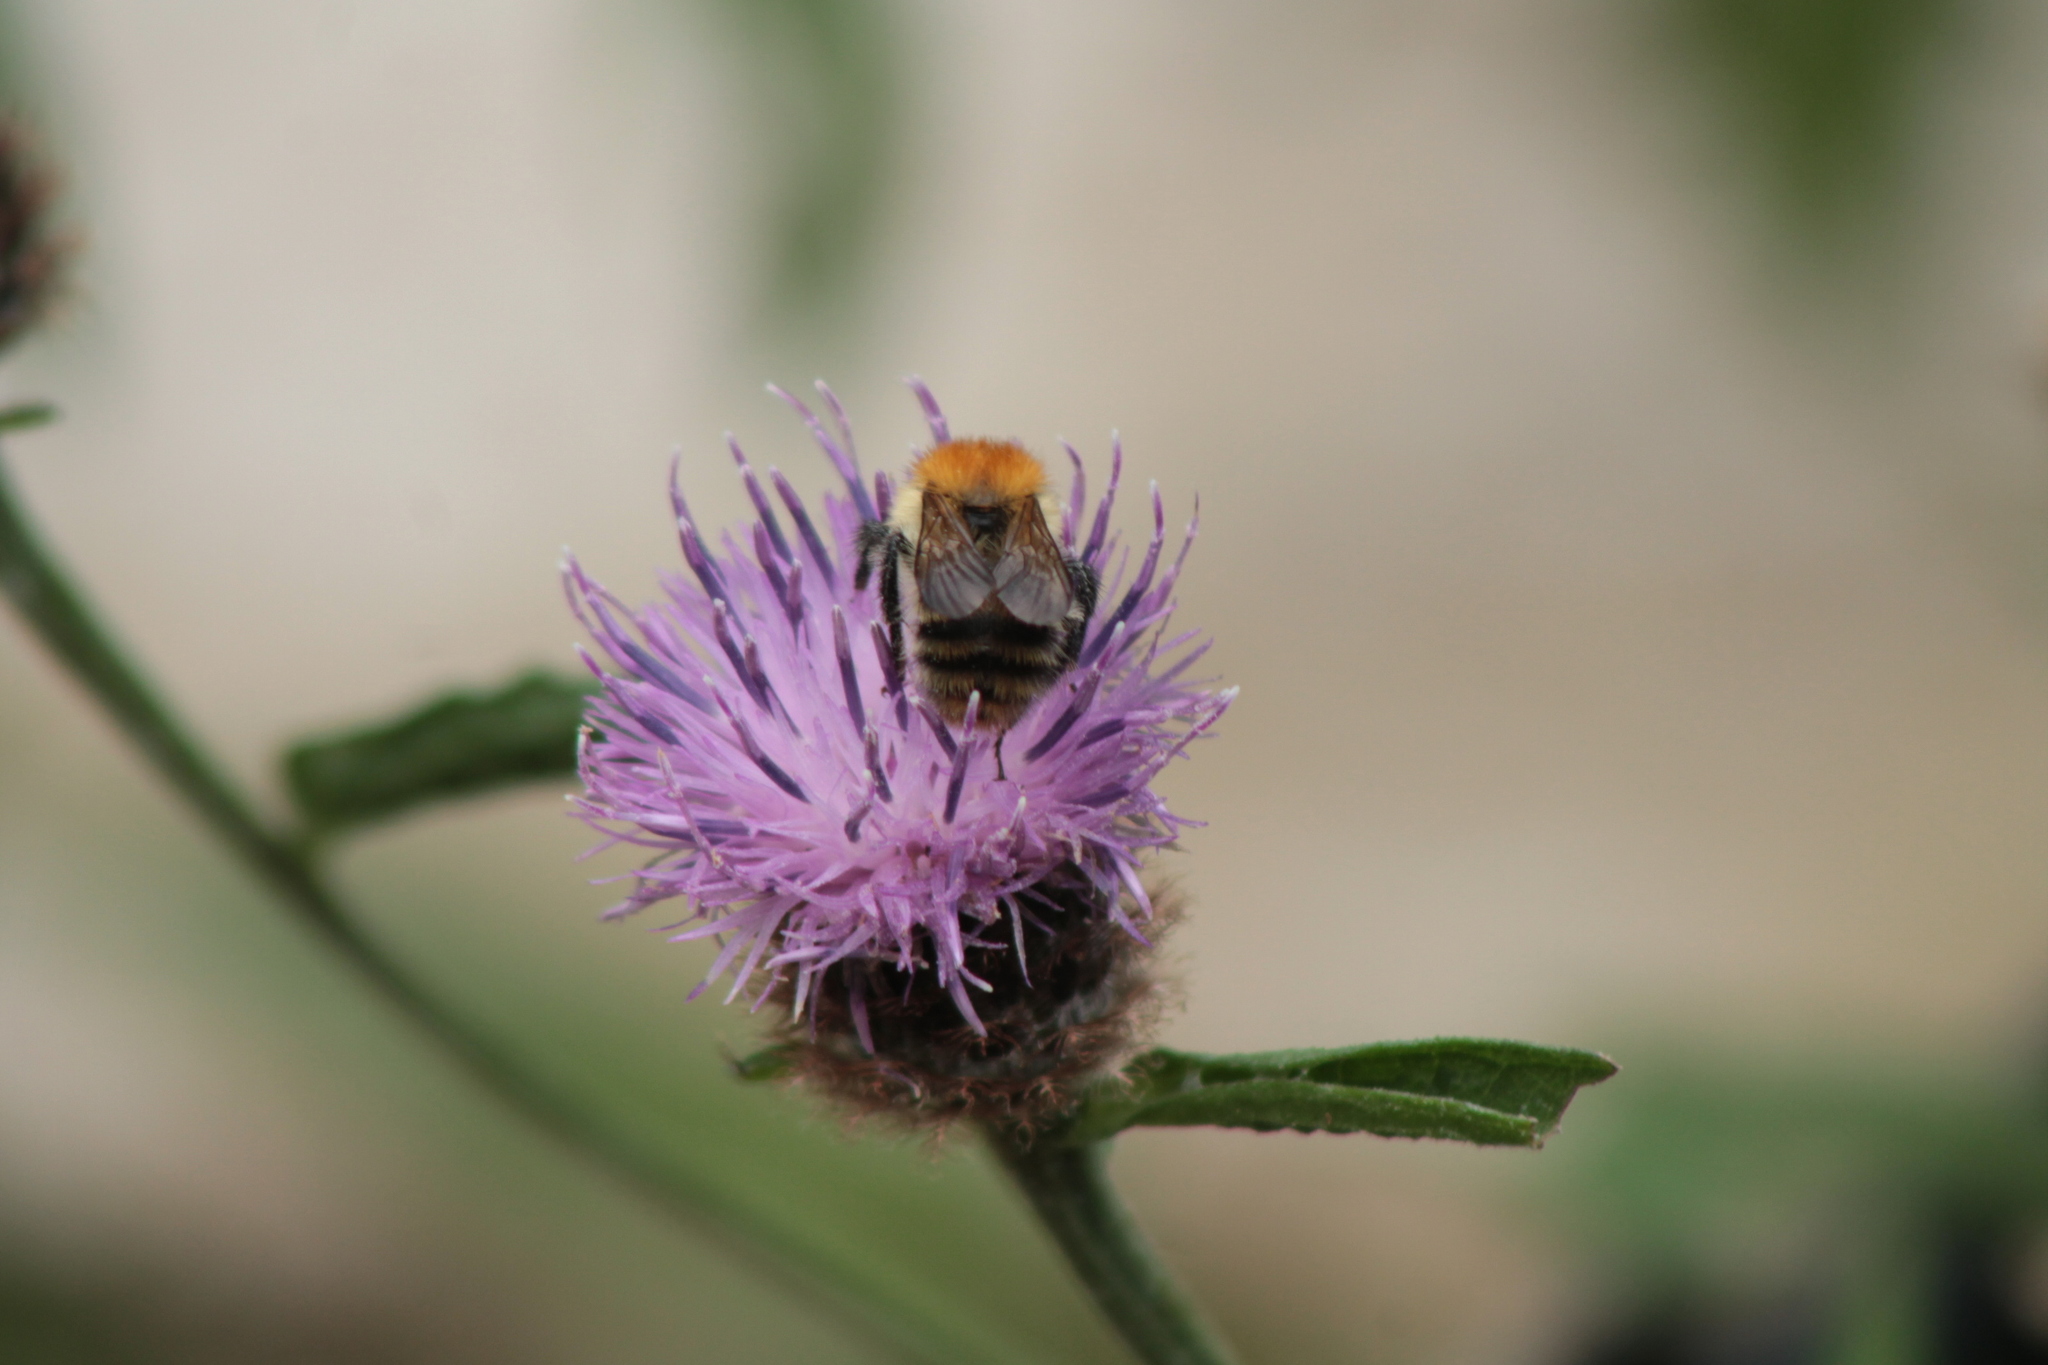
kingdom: Animalia
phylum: Arthropoda
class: Insecta
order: Hymenoptera
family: Apidae
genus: Bombus
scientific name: Bombus pascuorum
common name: Common carder bee
